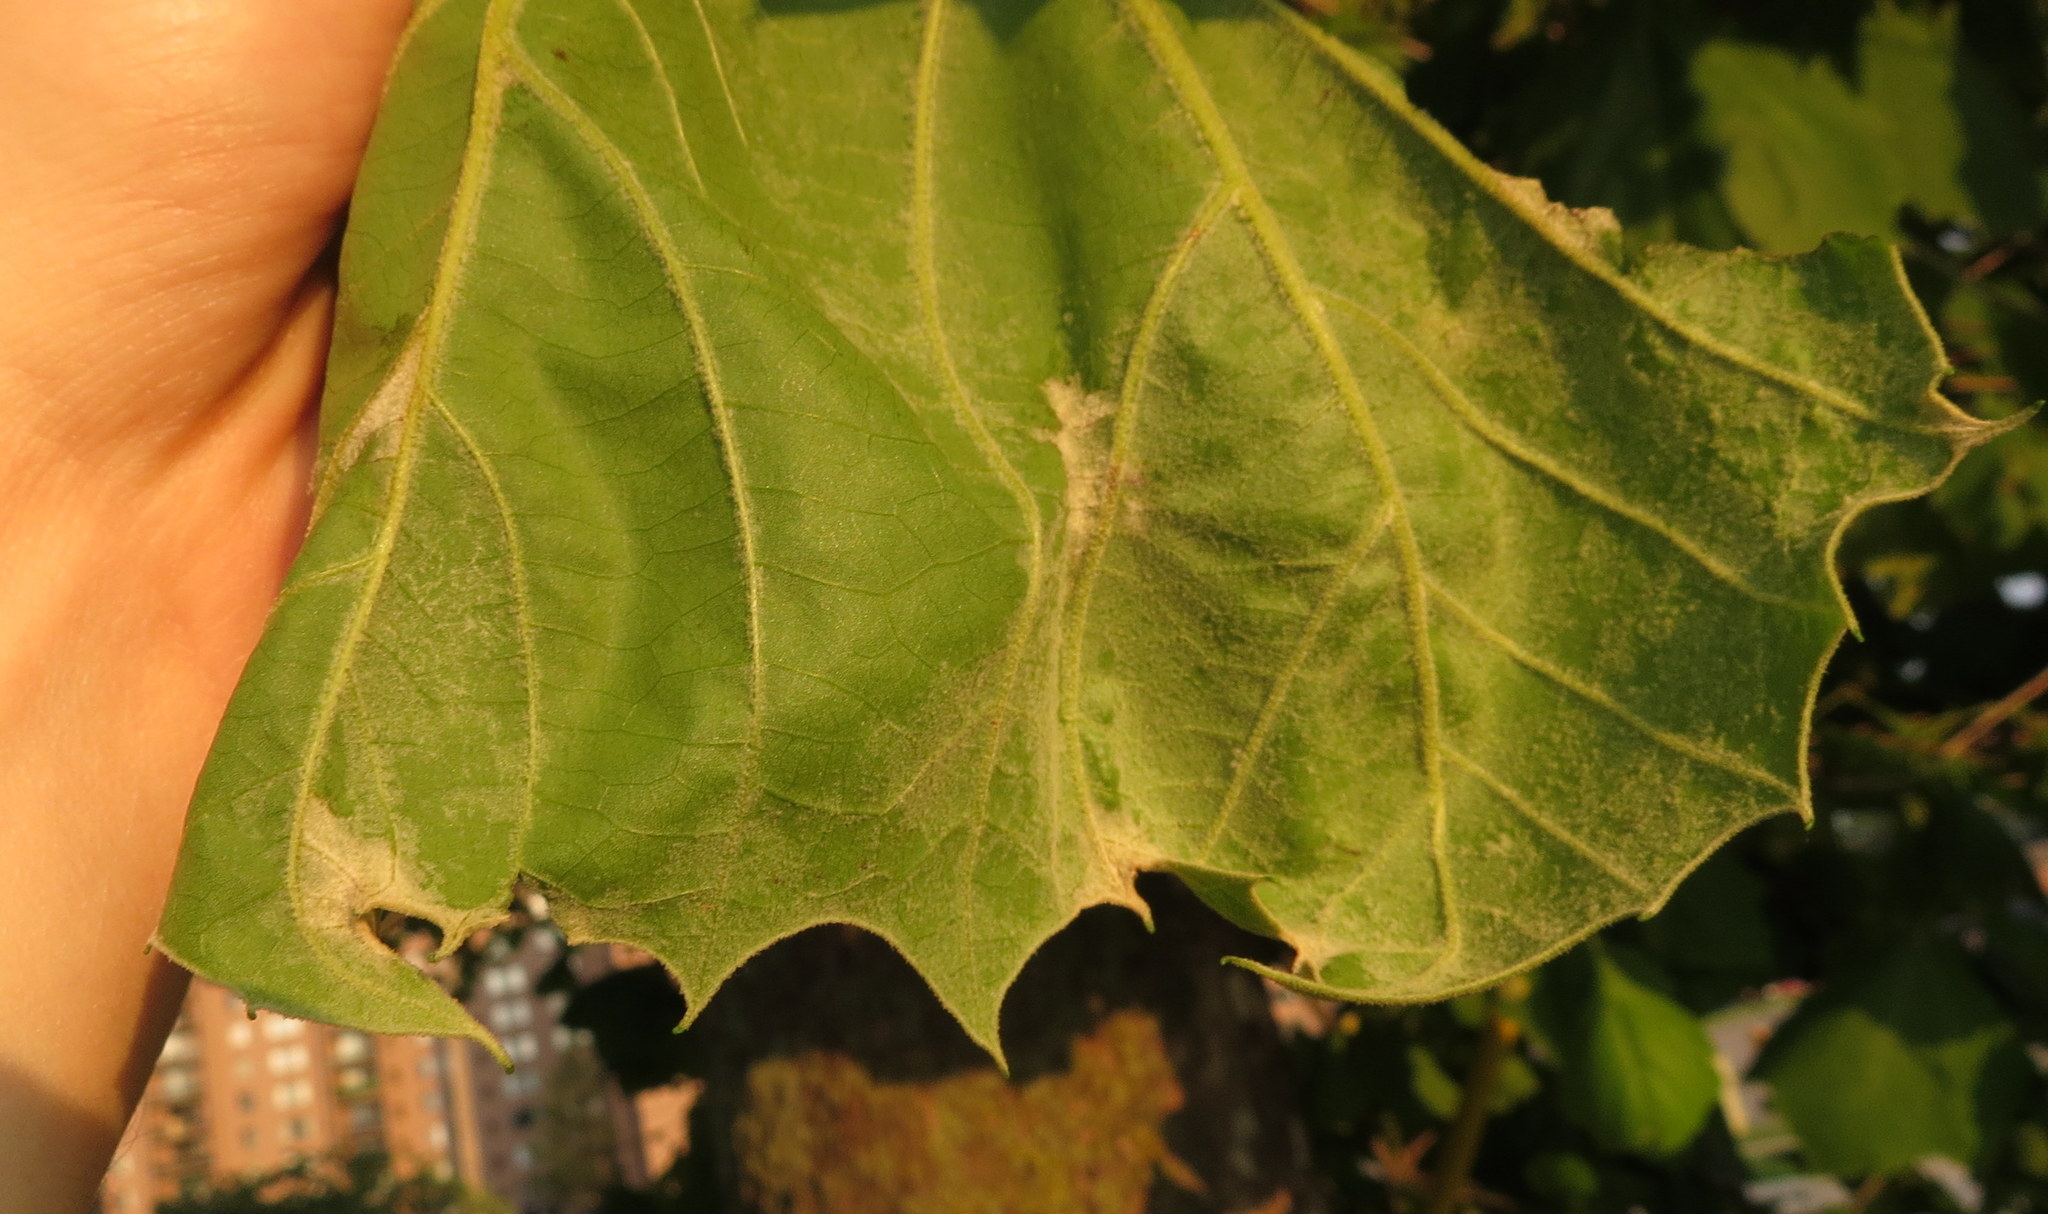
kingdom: Fungi
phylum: Ascomycota
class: Leotiomycetes
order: Helotiales
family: Erysiphaceae
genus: Erysiphe
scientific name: Erysiphe platani
